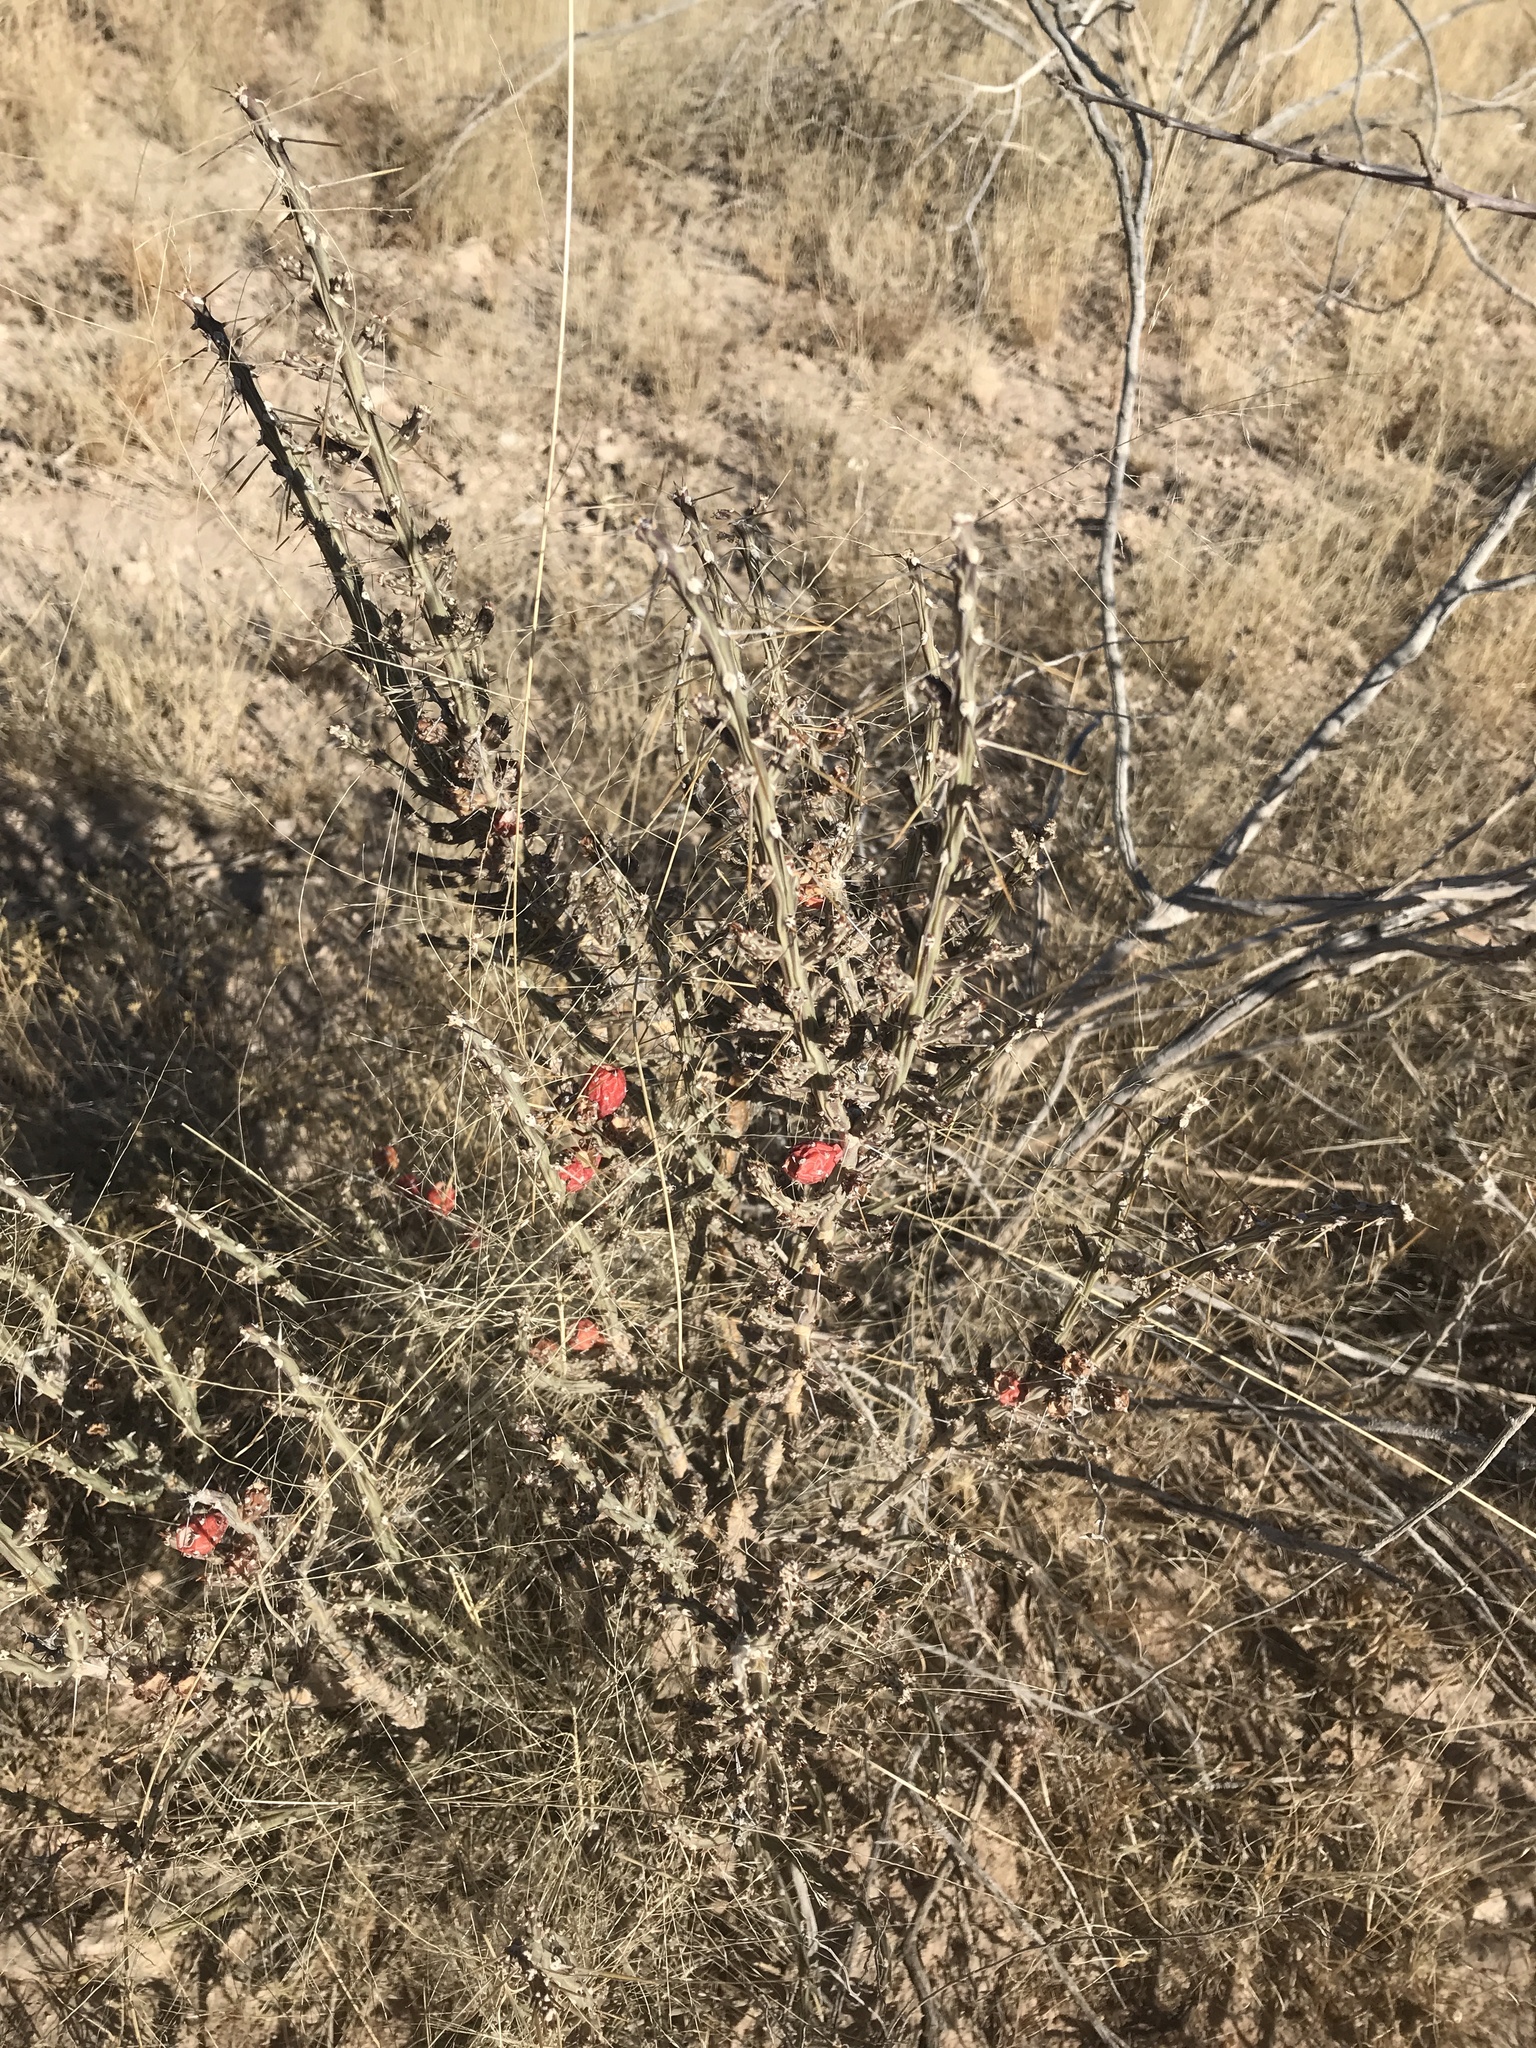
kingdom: Plantae
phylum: Tracheophyta
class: Magnoliopsida
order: Caryophyllales
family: Cactaceae
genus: Cylindropuntia
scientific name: Cylindropuntia leptocaulis
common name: Christmas cactus
